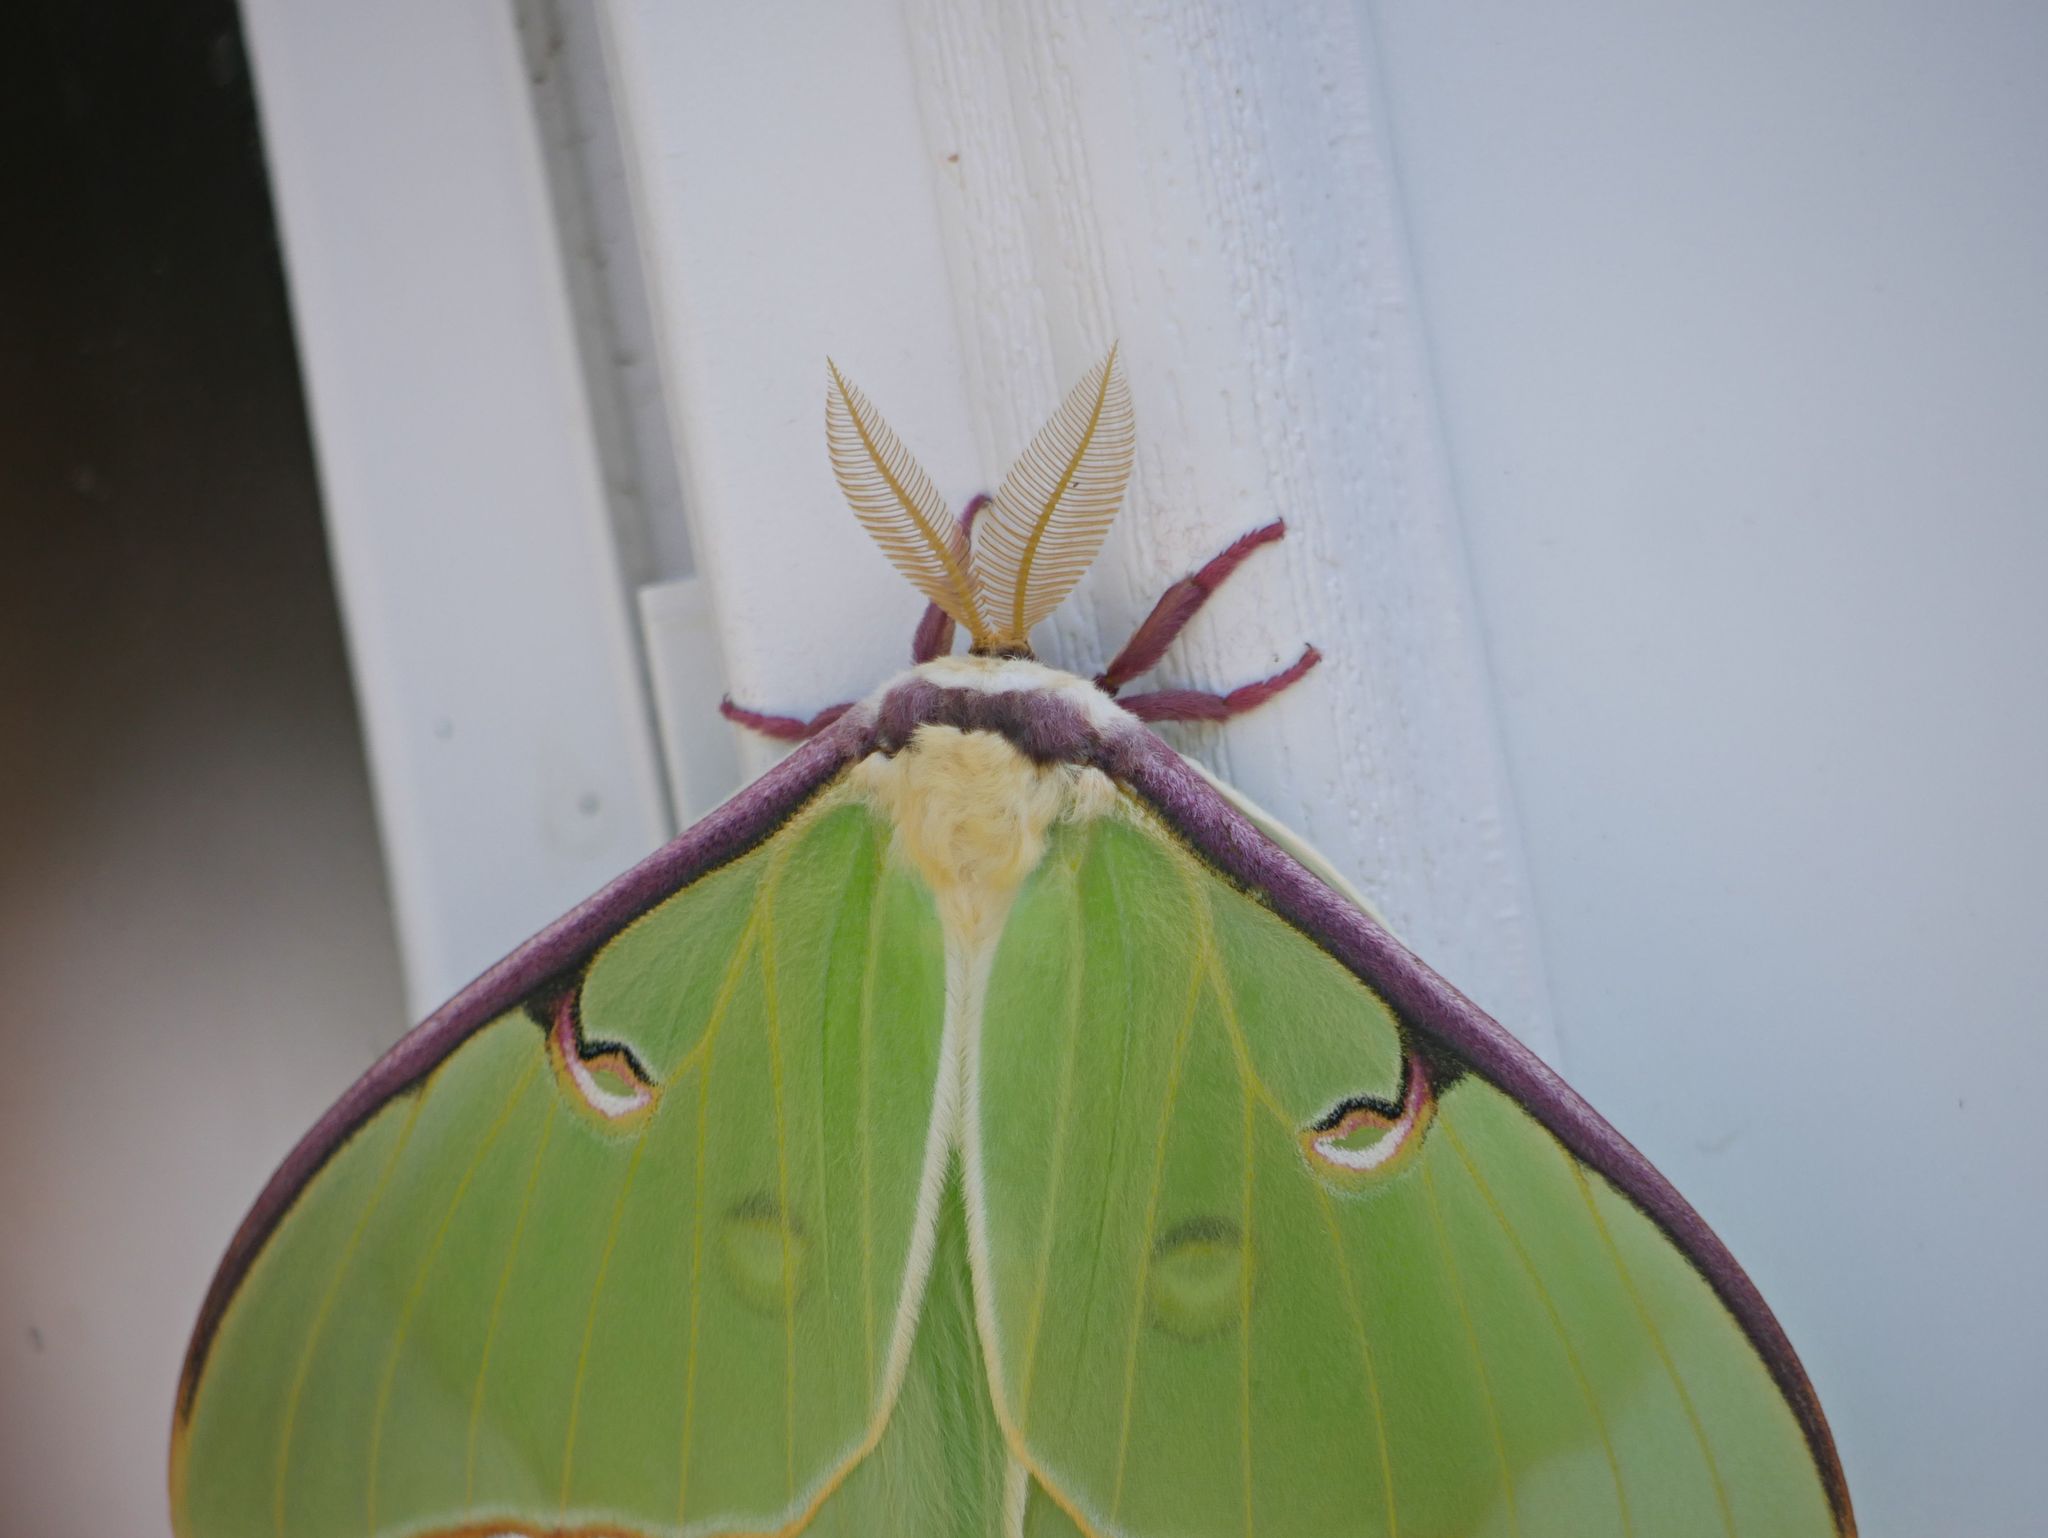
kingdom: Animalia
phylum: Arthropoda
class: Insecta
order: Lepidoptera
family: Saturniidae
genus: Actias
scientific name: Actias luna
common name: Luna moth
